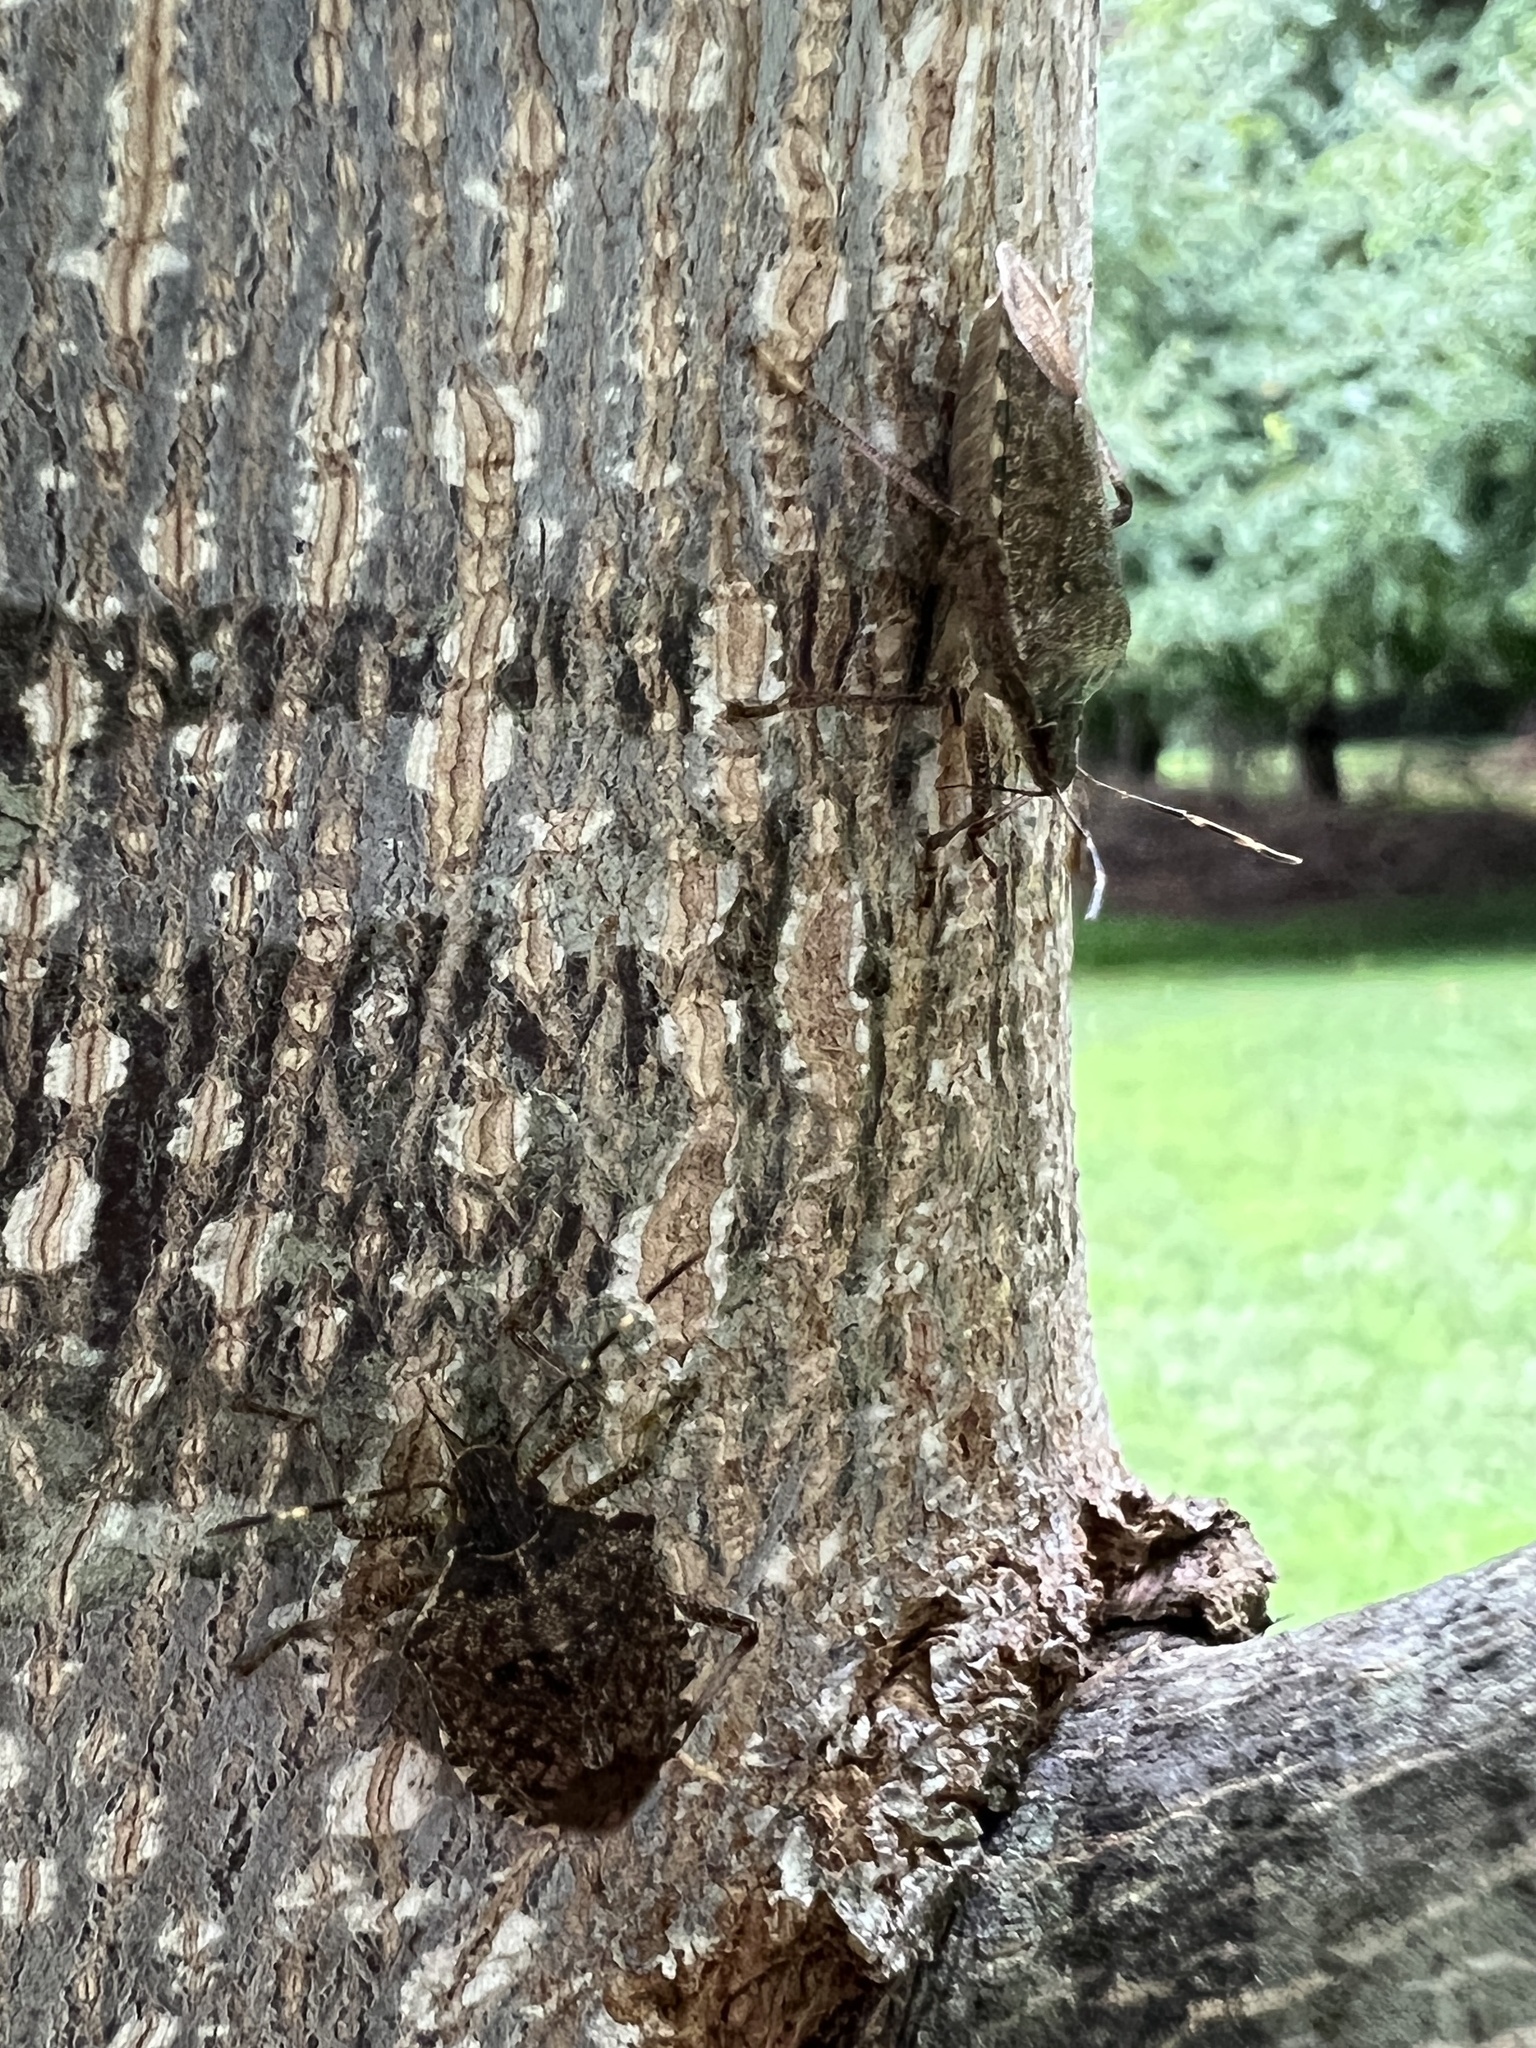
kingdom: Animalia
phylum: Arthropoda
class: Insecta
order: Hemiptera
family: Pentatomidae
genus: Halyomorpha
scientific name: Halyomorpha halys
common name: Brown marmorated stink bug
